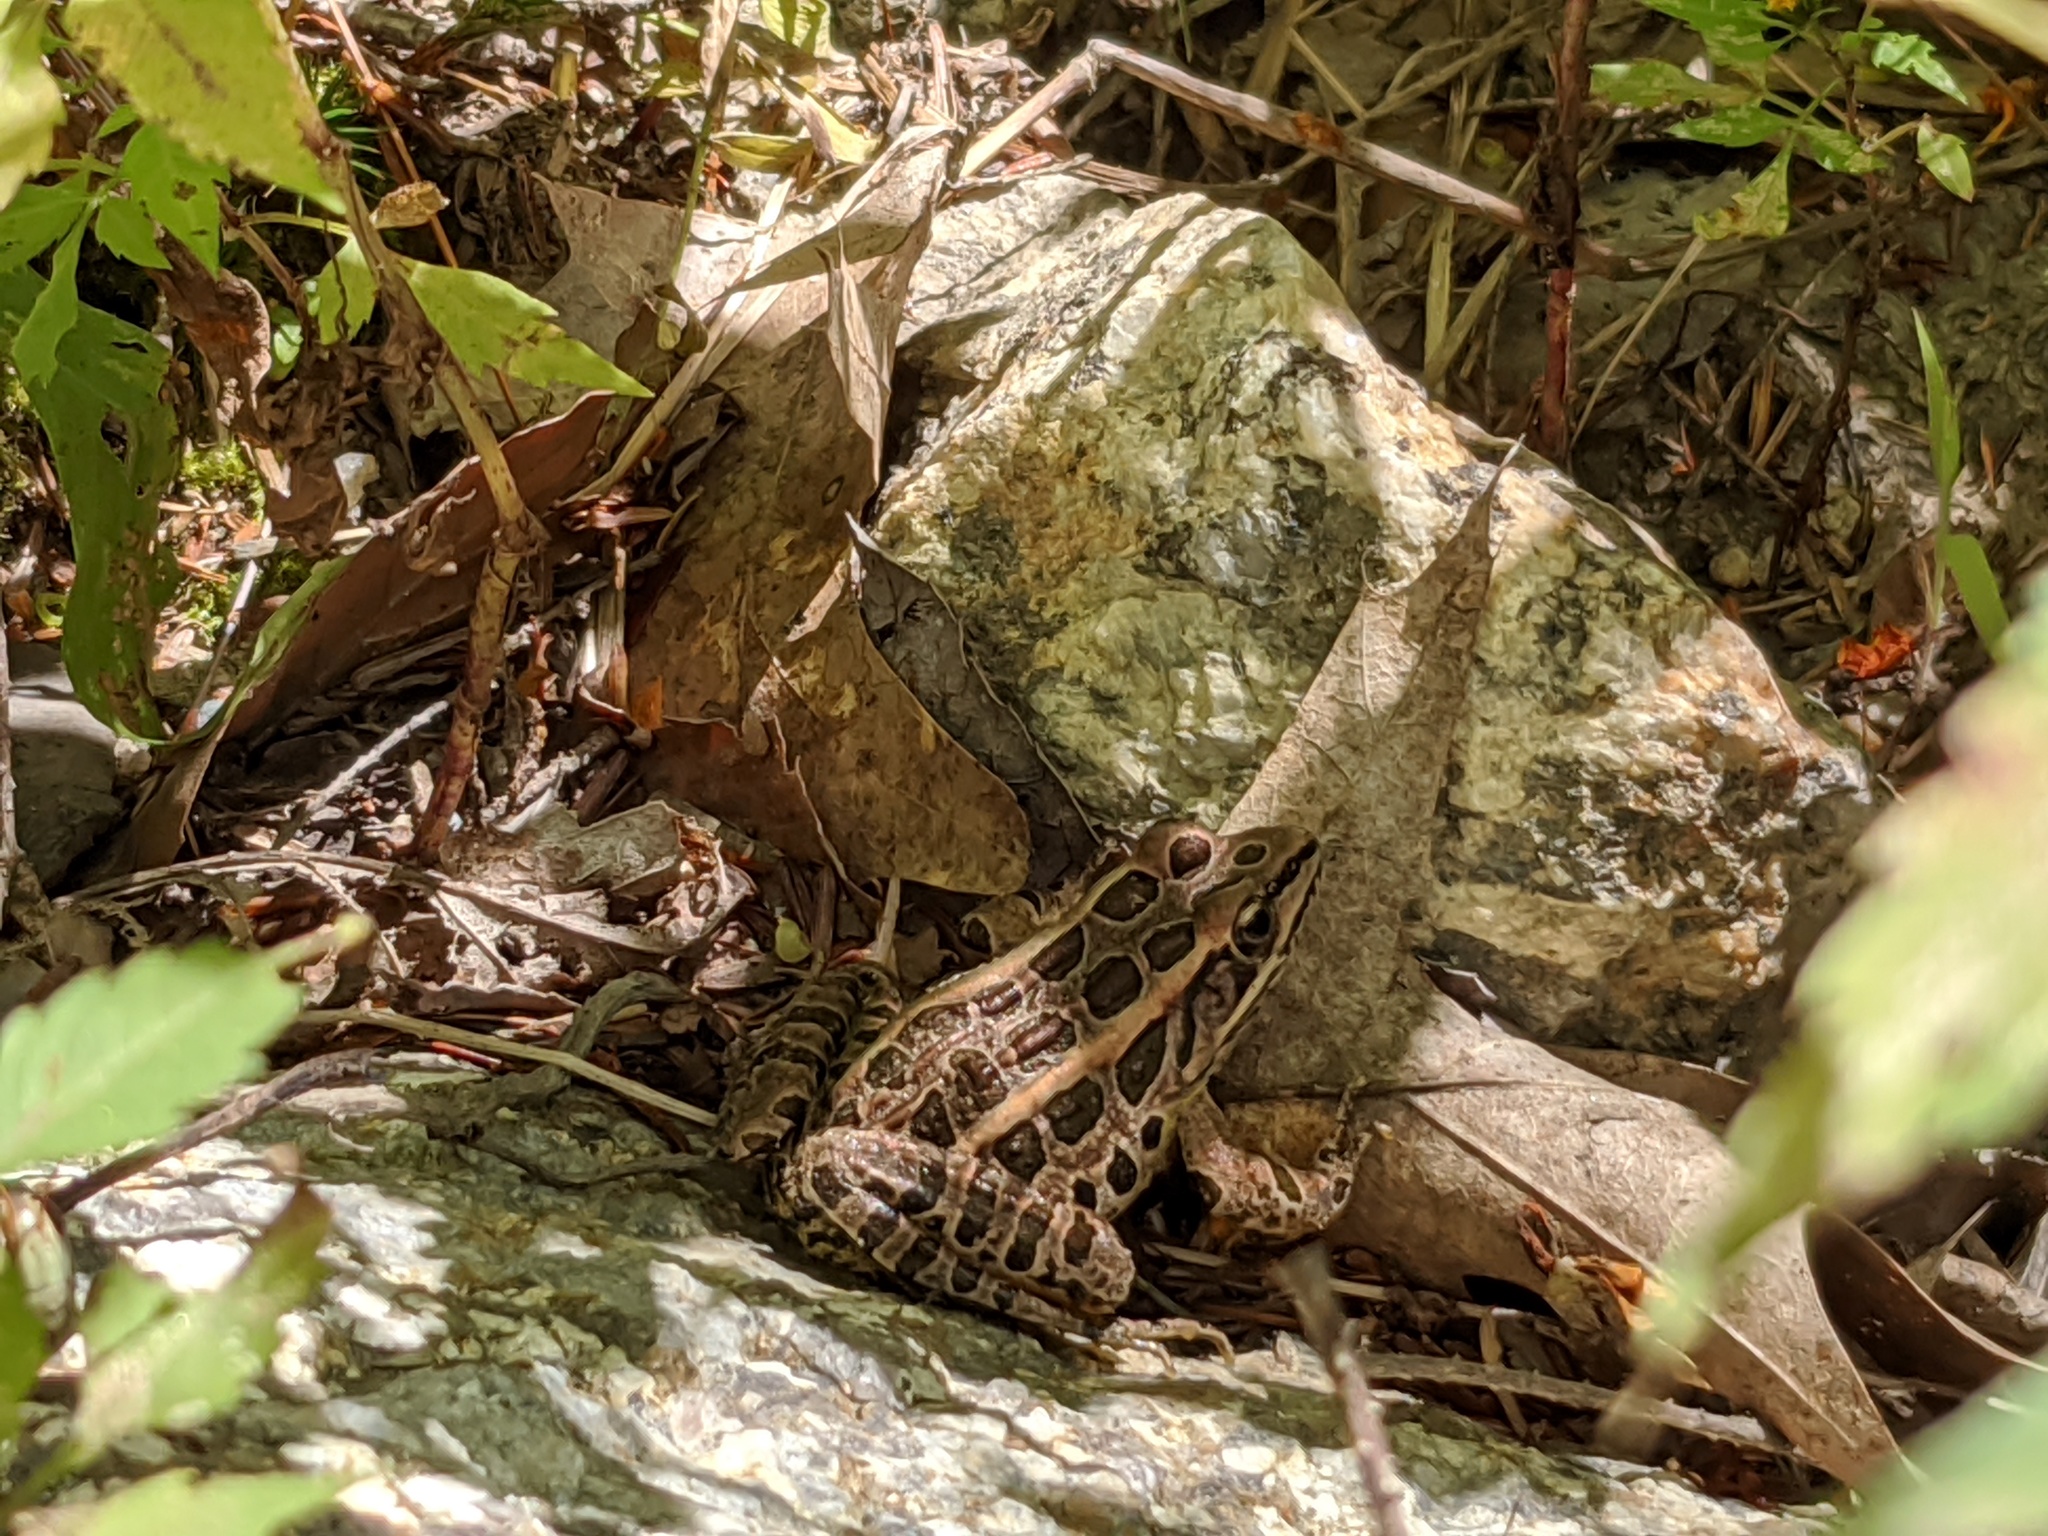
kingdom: Animalia
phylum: Chordata
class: Amphibia
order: Anura
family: Ranidae
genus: Lithobates
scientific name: Lithobates palustris
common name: Pickerel frog
